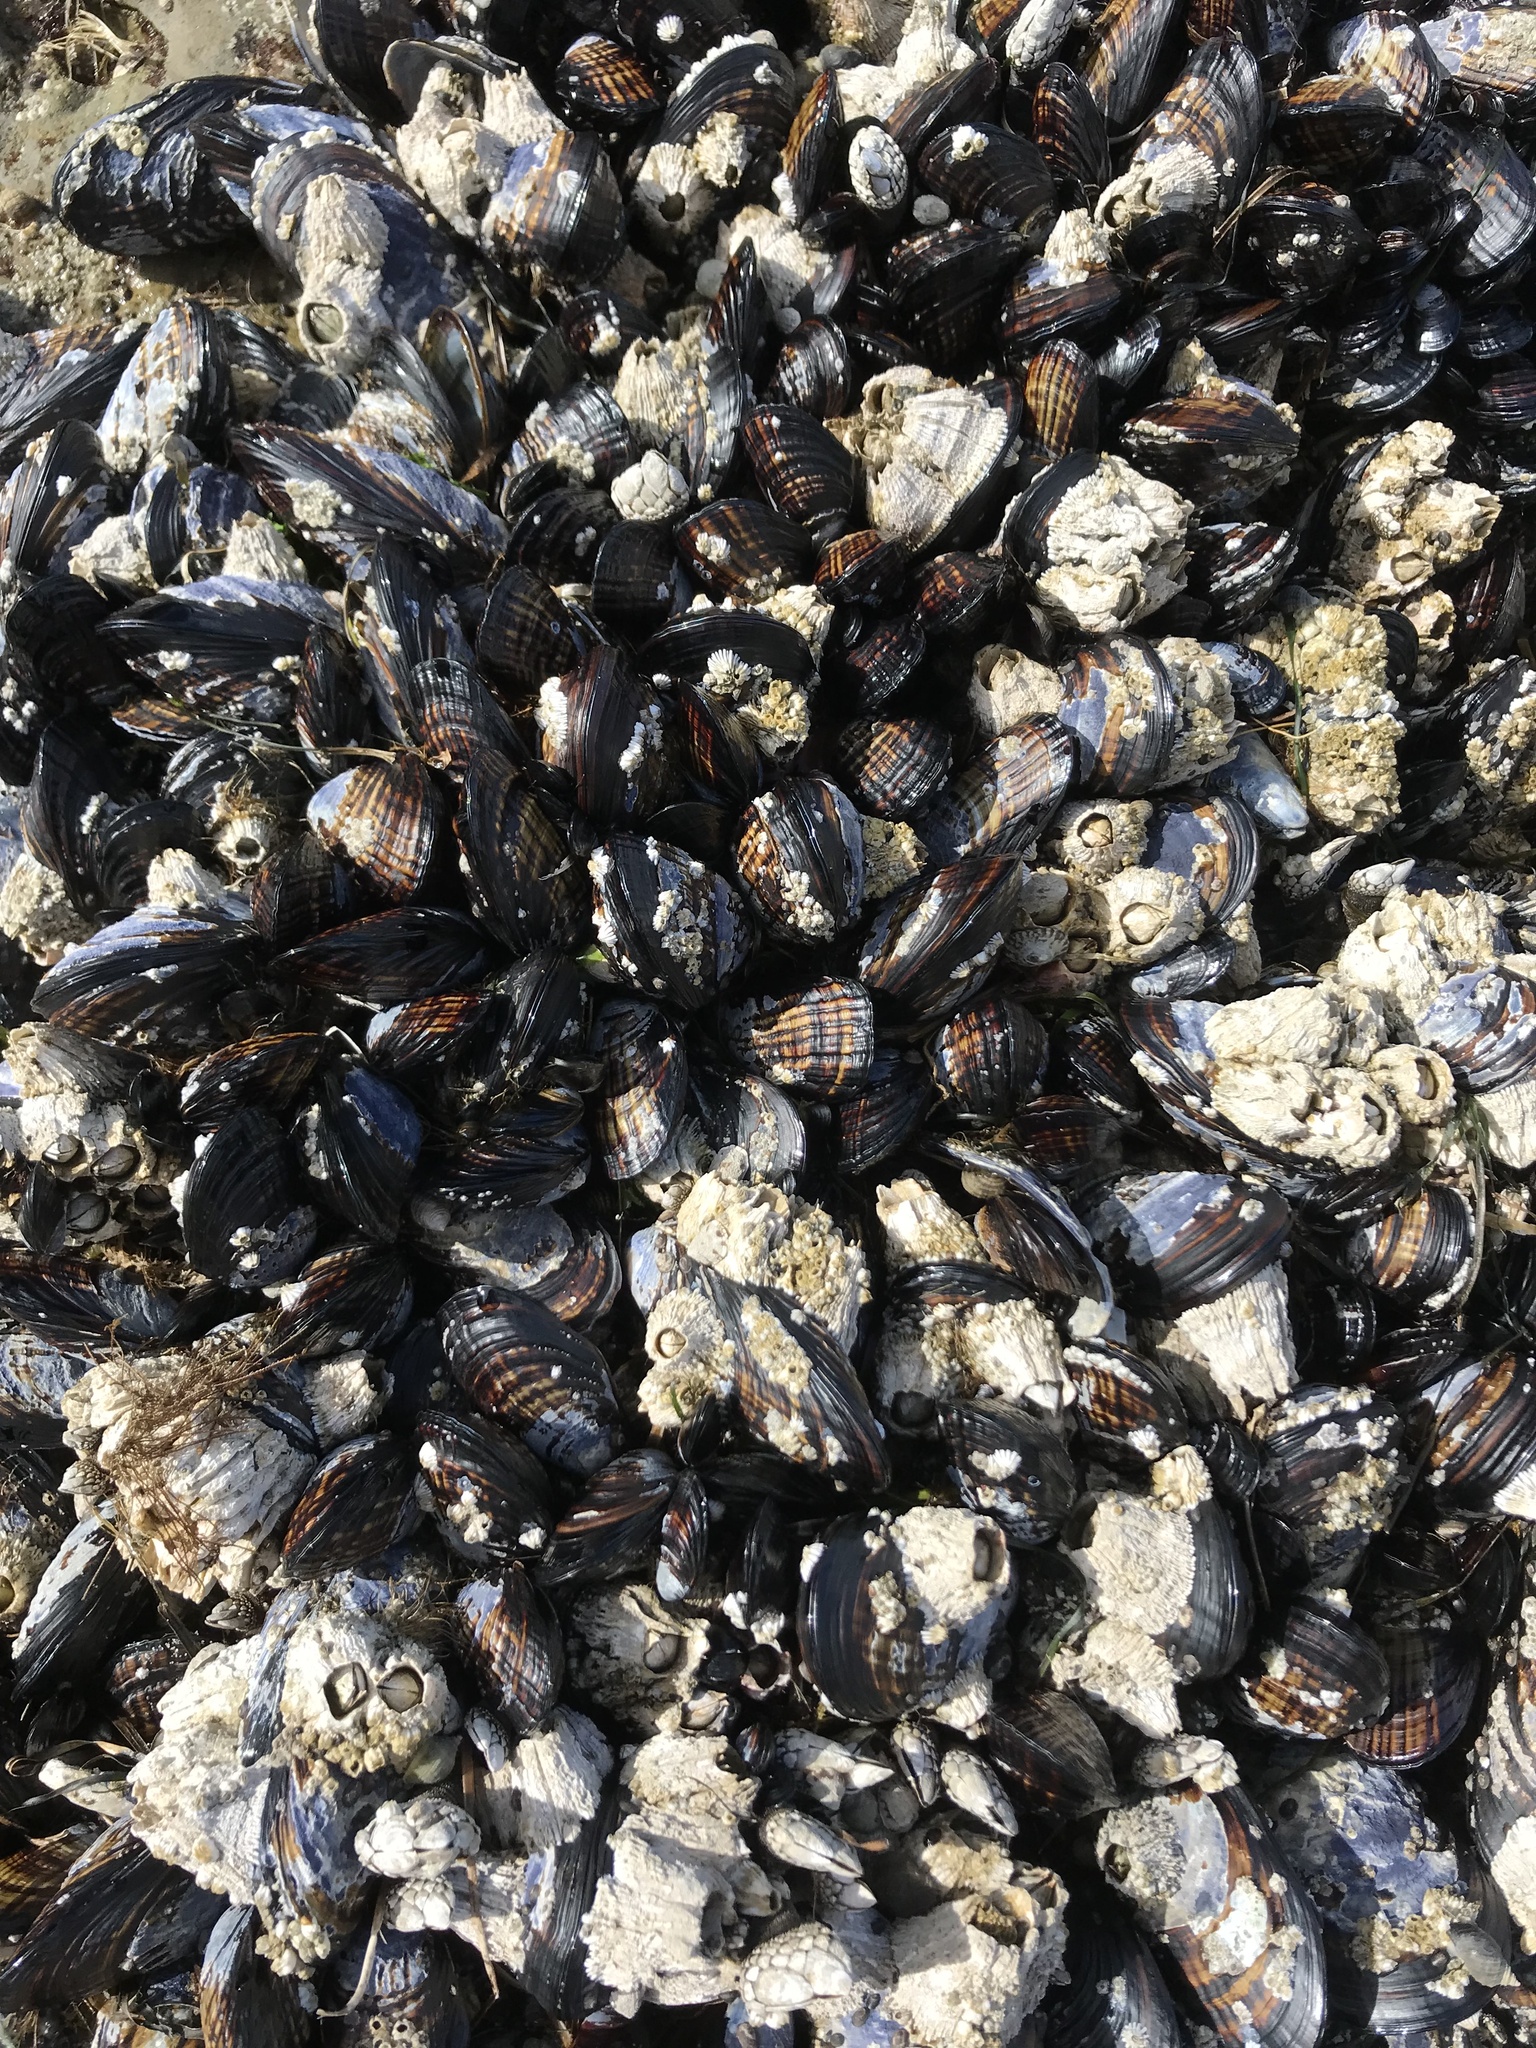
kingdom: Animalia
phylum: Mollusca
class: Bivalvia
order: Mytilida
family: Mytilidae
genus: Mytilus
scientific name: Mytilus californianus
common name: California mussel
